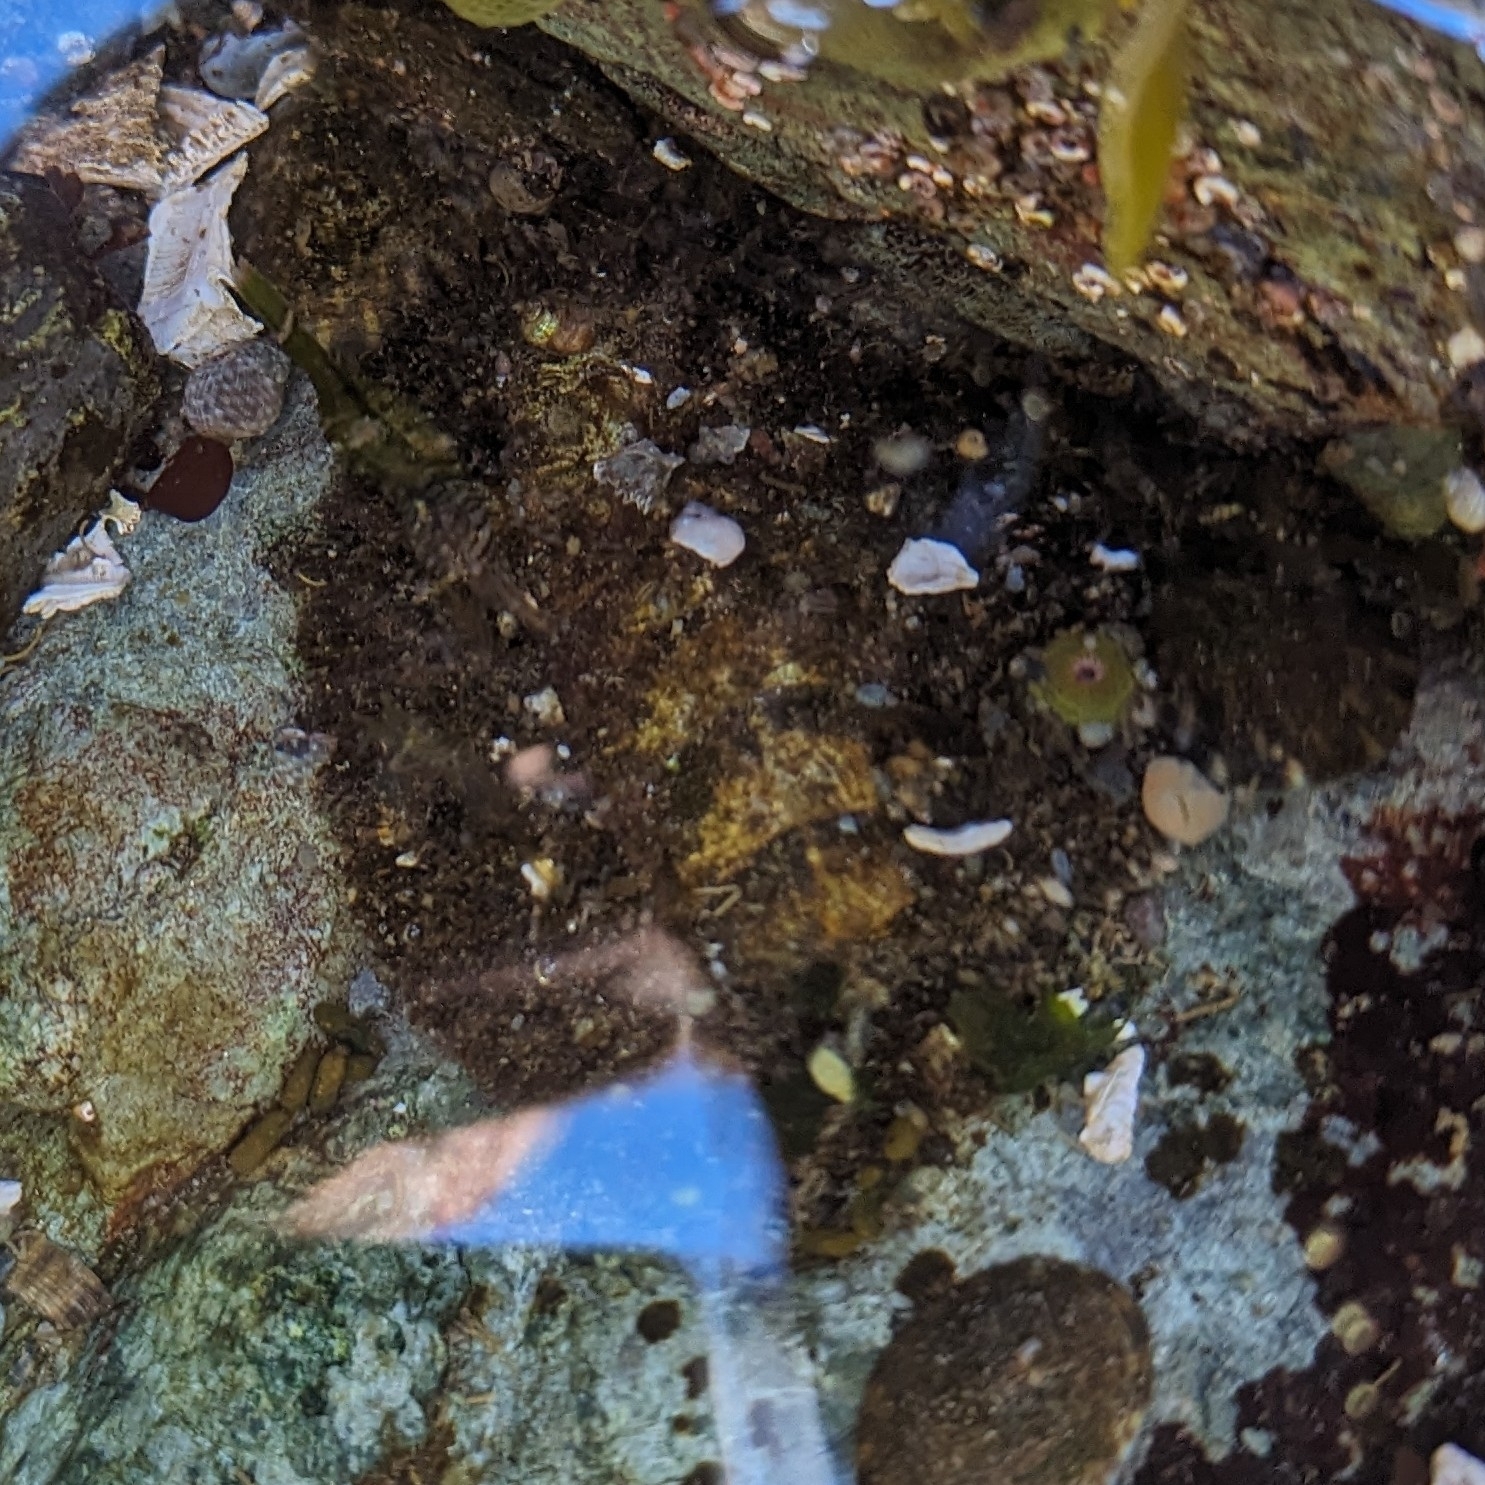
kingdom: Animalia
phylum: Mollusca
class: Polyplacophora
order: Chitonida
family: Mopaliidae
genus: Mopalia
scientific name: Mopalia muscosa
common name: Mossy chiton
